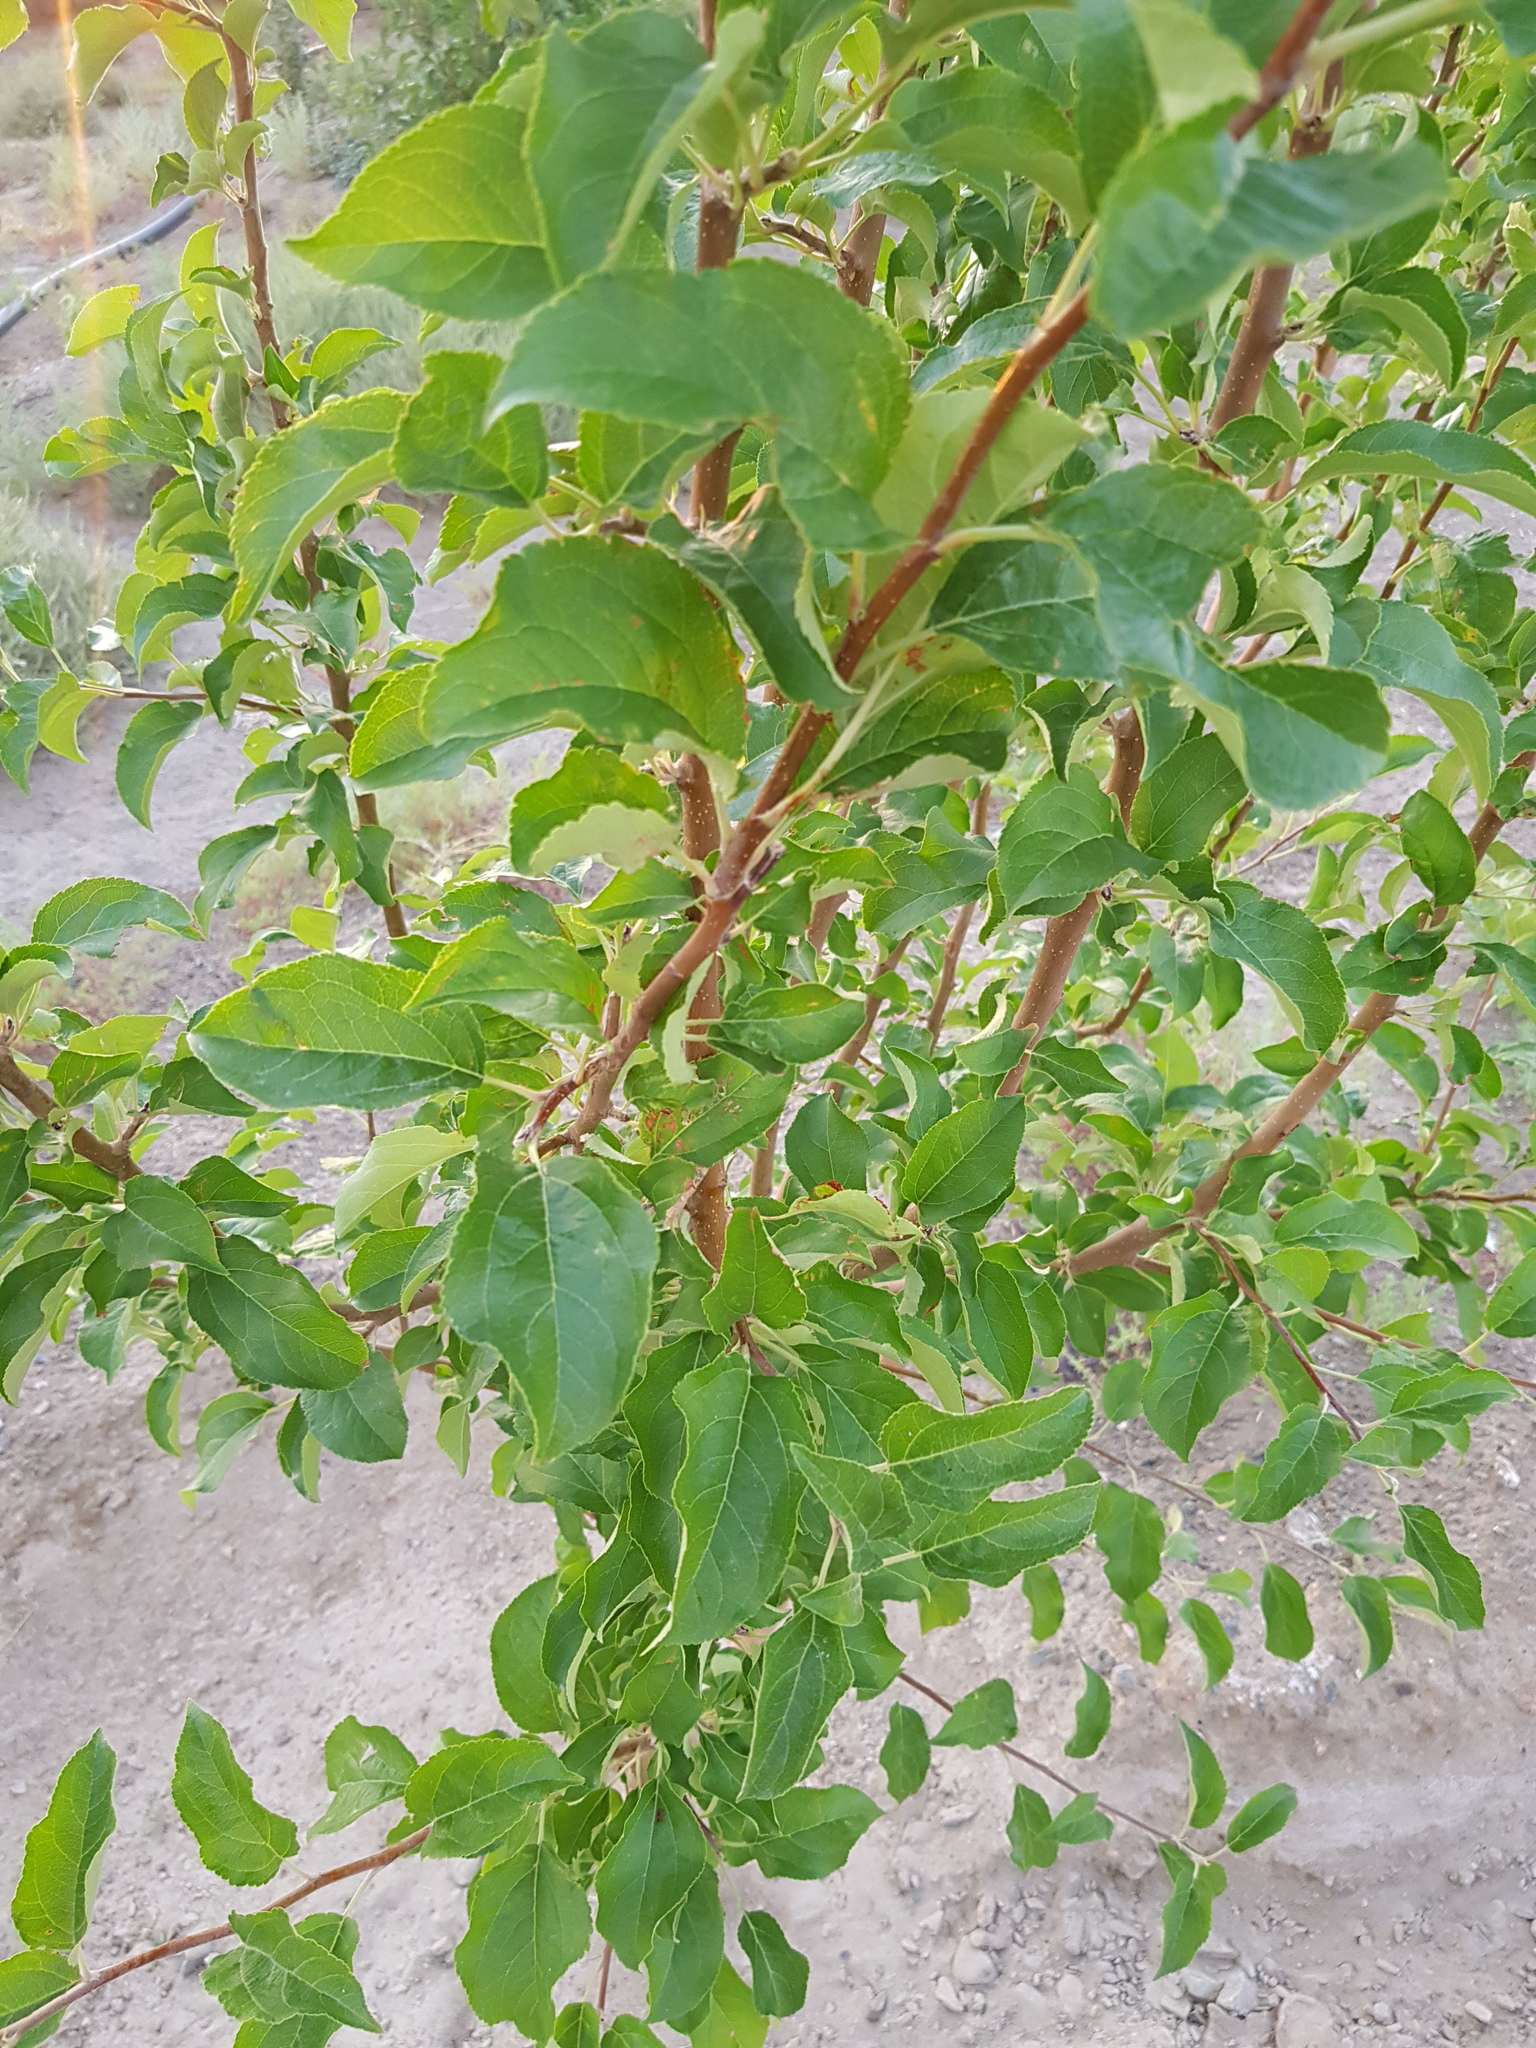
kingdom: Plantae
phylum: Tracheophyta
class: Magnoliopsida
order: Rosales
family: Rosaceae
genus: Malus
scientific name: Malus prunifolia
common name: Chinese apple
